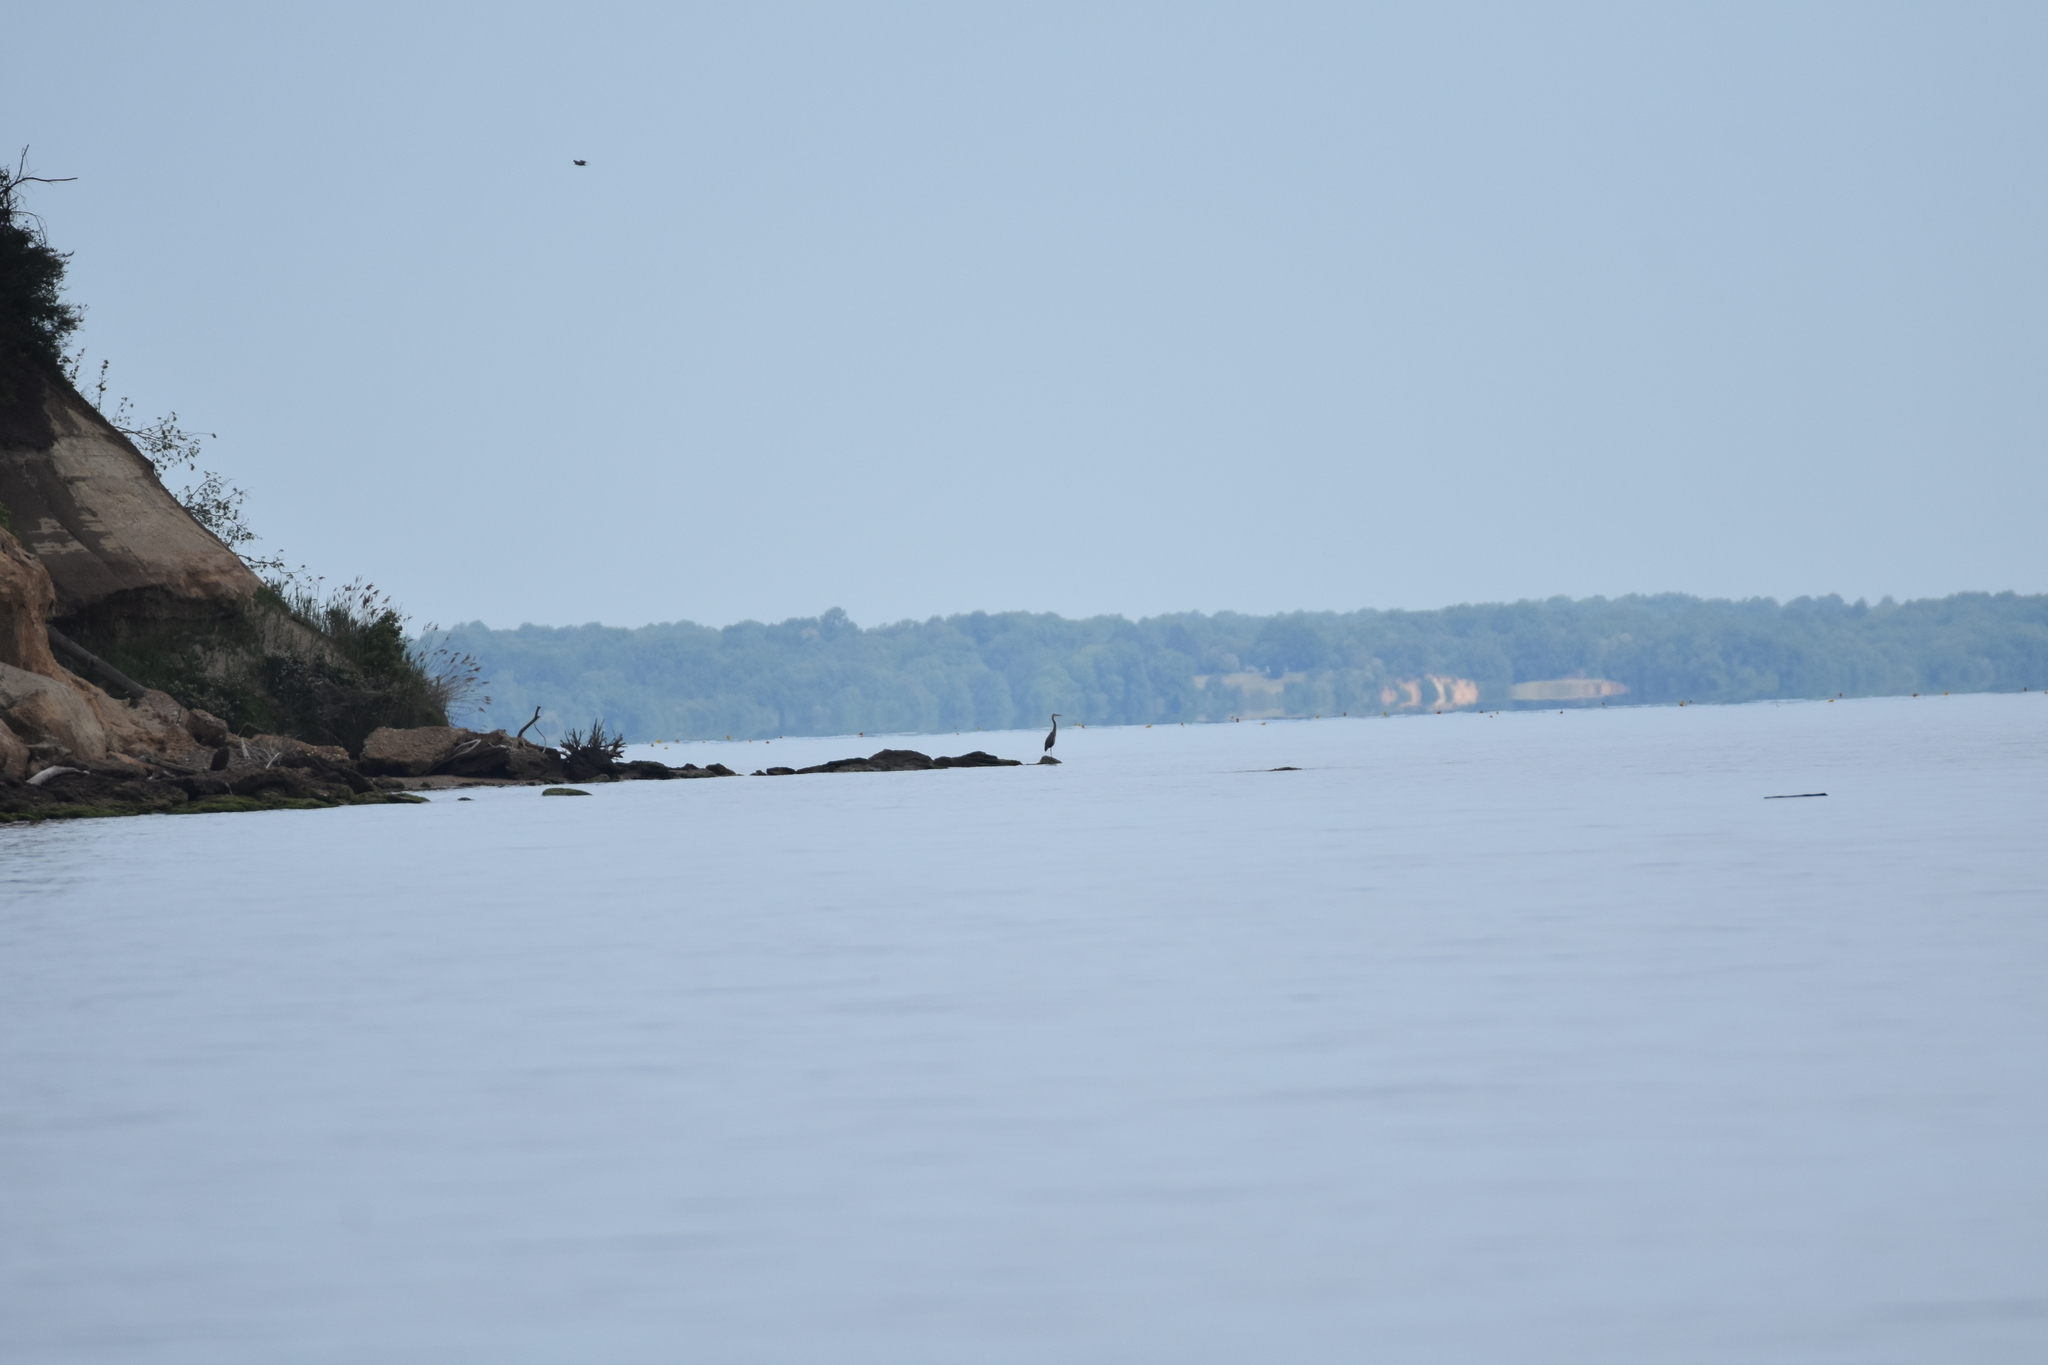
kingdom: Animalia
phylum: Chordata
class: Aves
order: Pelecaniformes
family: Ardeidae
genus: Ardea
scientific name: Ardea herodias
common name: Great blue heron
